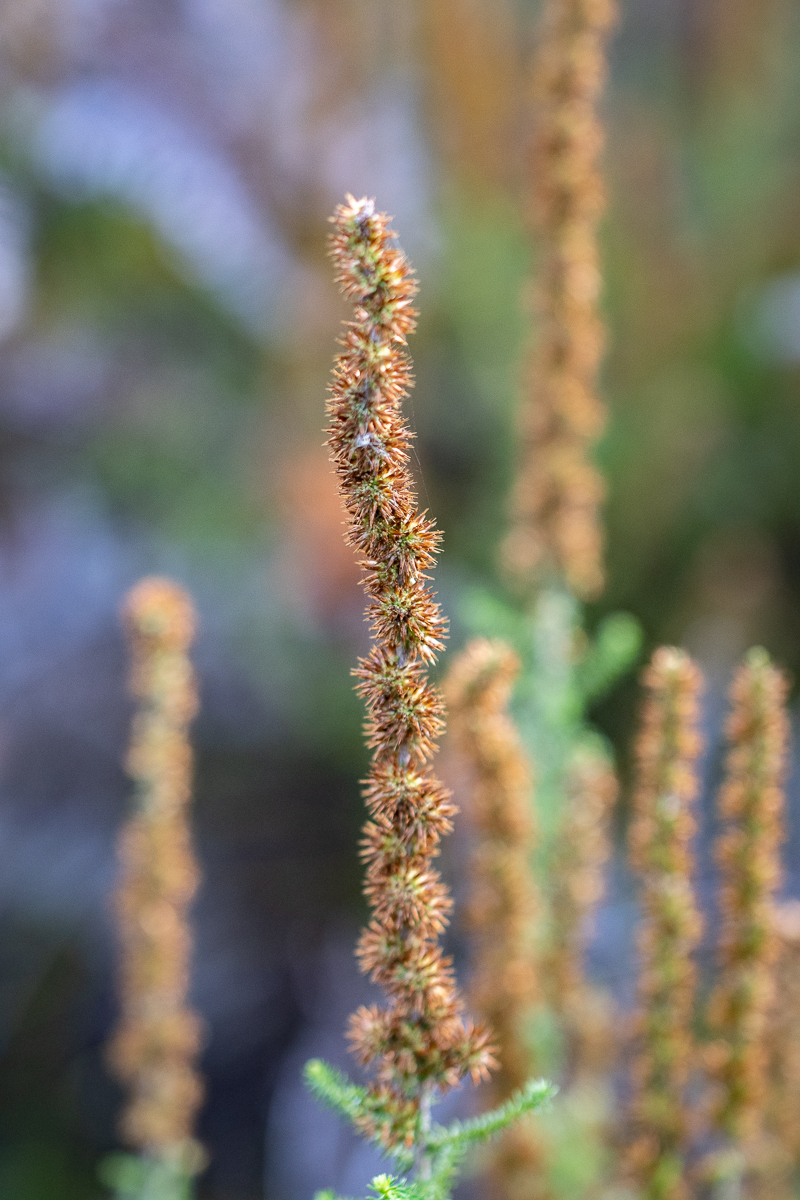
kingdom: Plantae
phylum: Tracheophyta
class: Magnoliopsida
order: Asterales
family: Asteraceae
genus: Seriphium
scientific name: Seriphium cinereum
